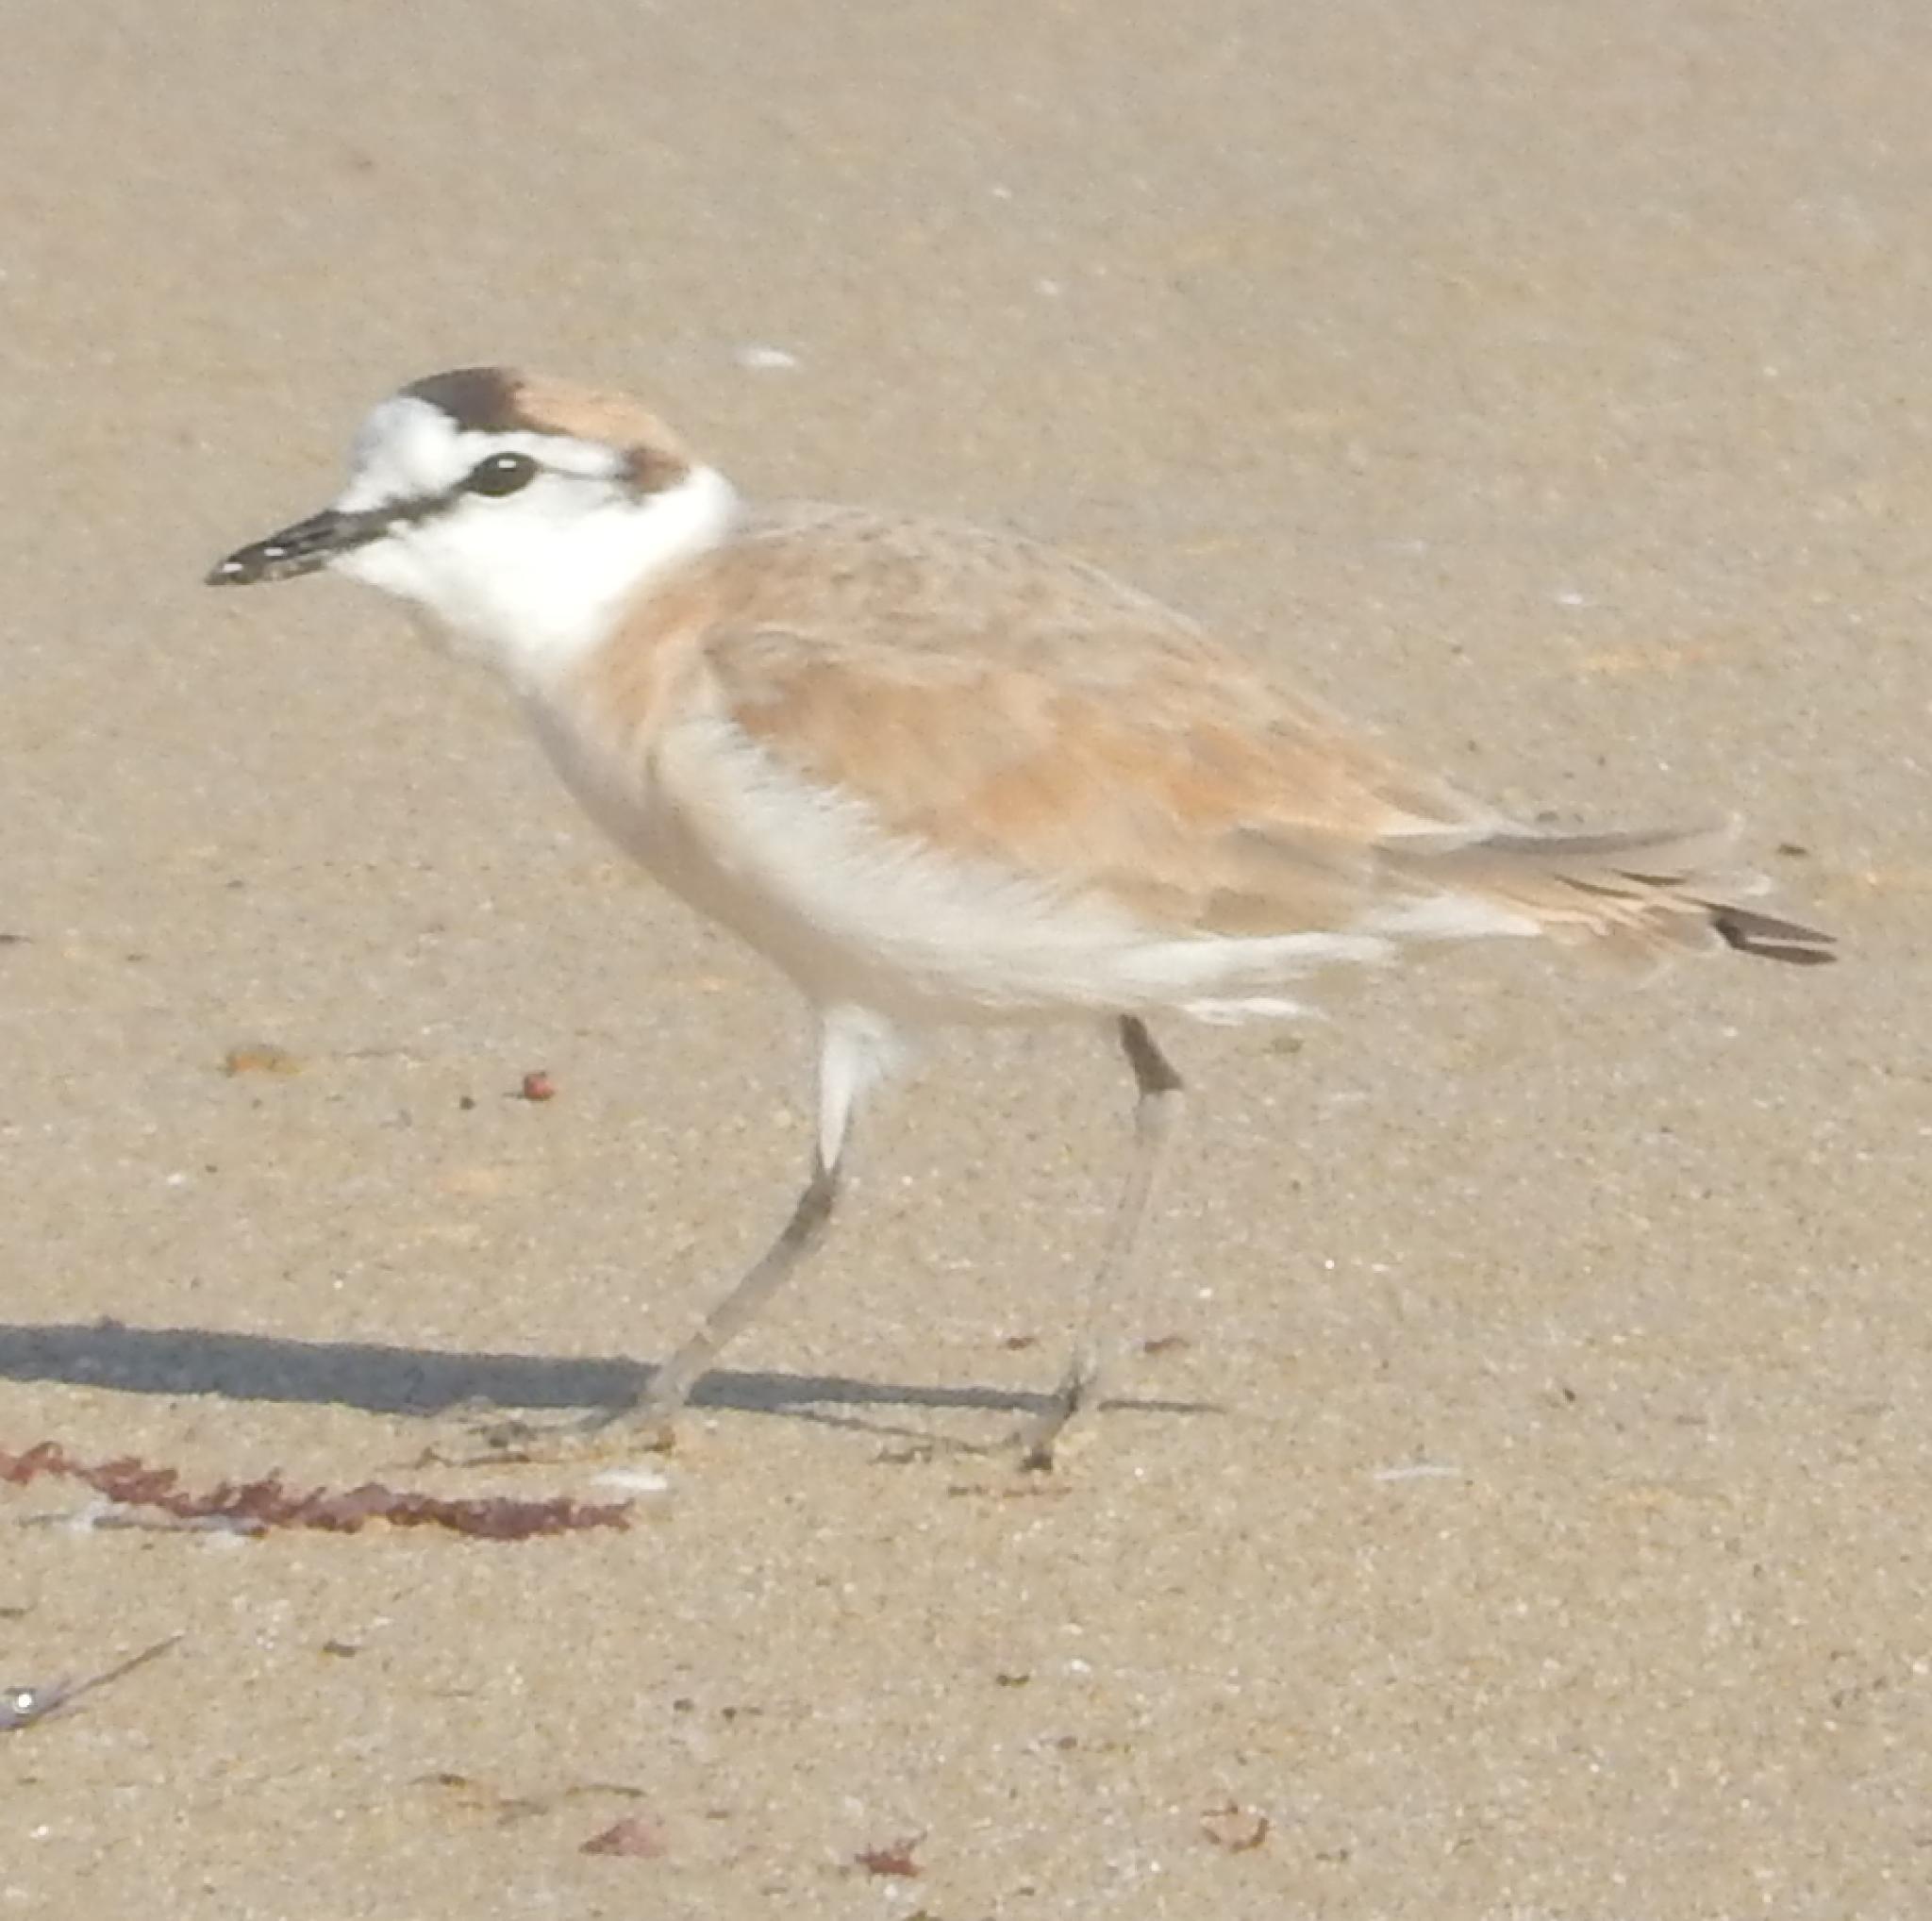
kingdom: Animalia
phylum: Chordata
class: Aves
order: Charadriiformes
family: Charadriidae
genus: Anarhynchus
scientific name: Anarhynchus
